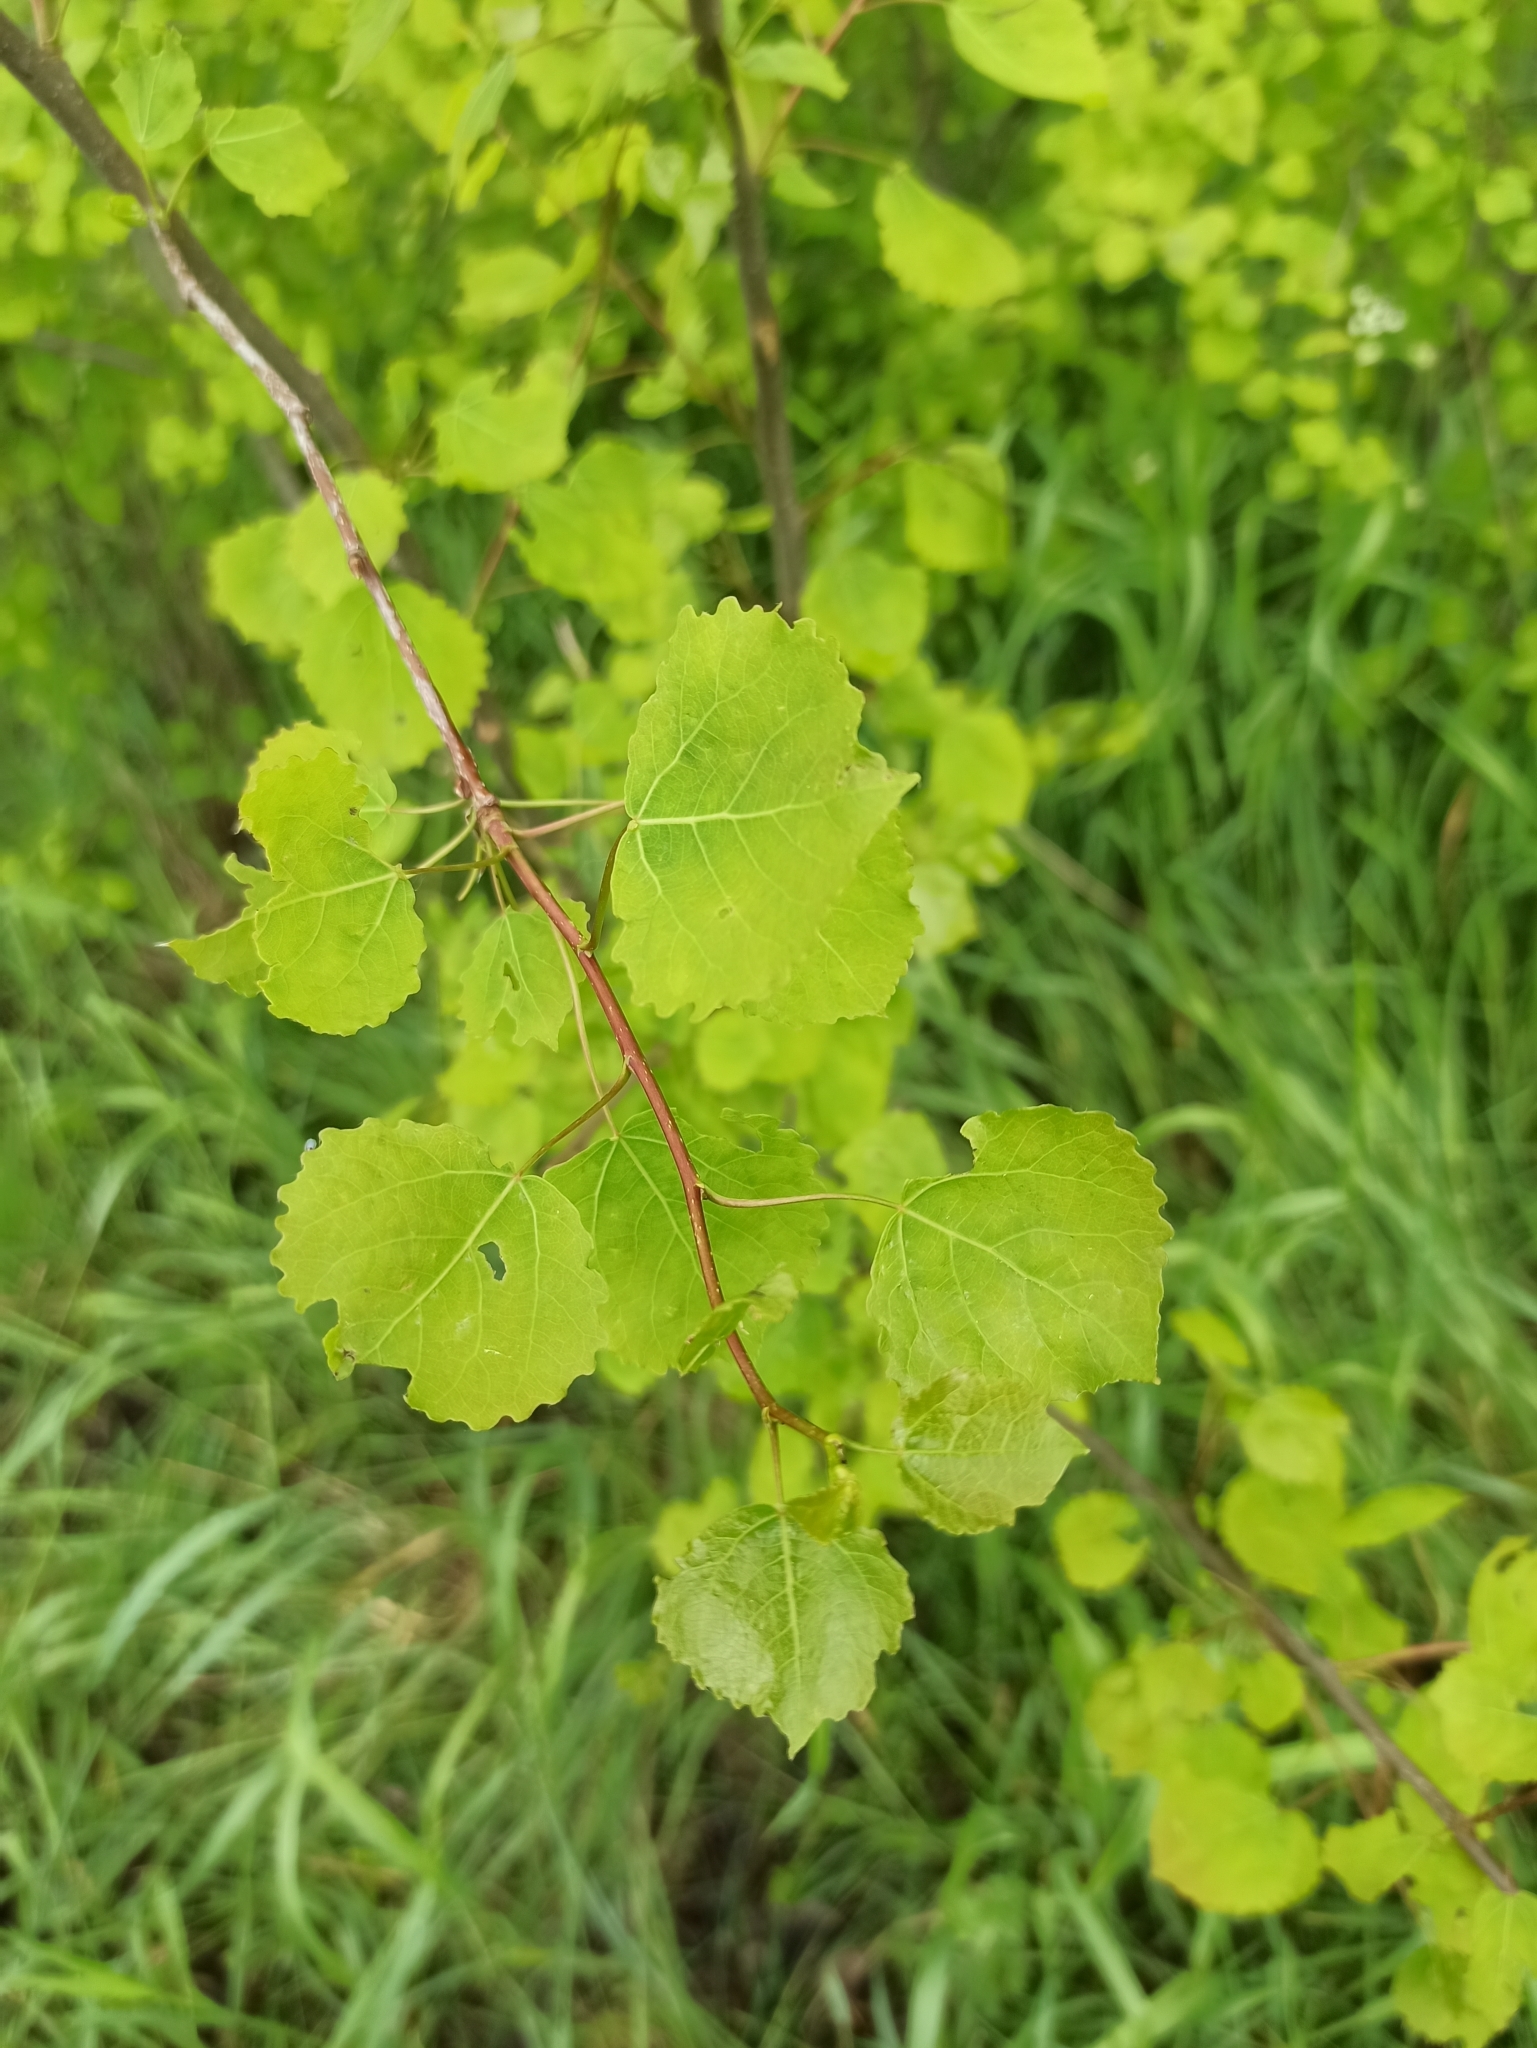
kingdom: Plantae
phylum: Tracheophyta
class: Magnoliopsida
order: Malpighiales
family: Salicaceae
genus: Populus
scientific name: Populus tremula
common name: European aspen
